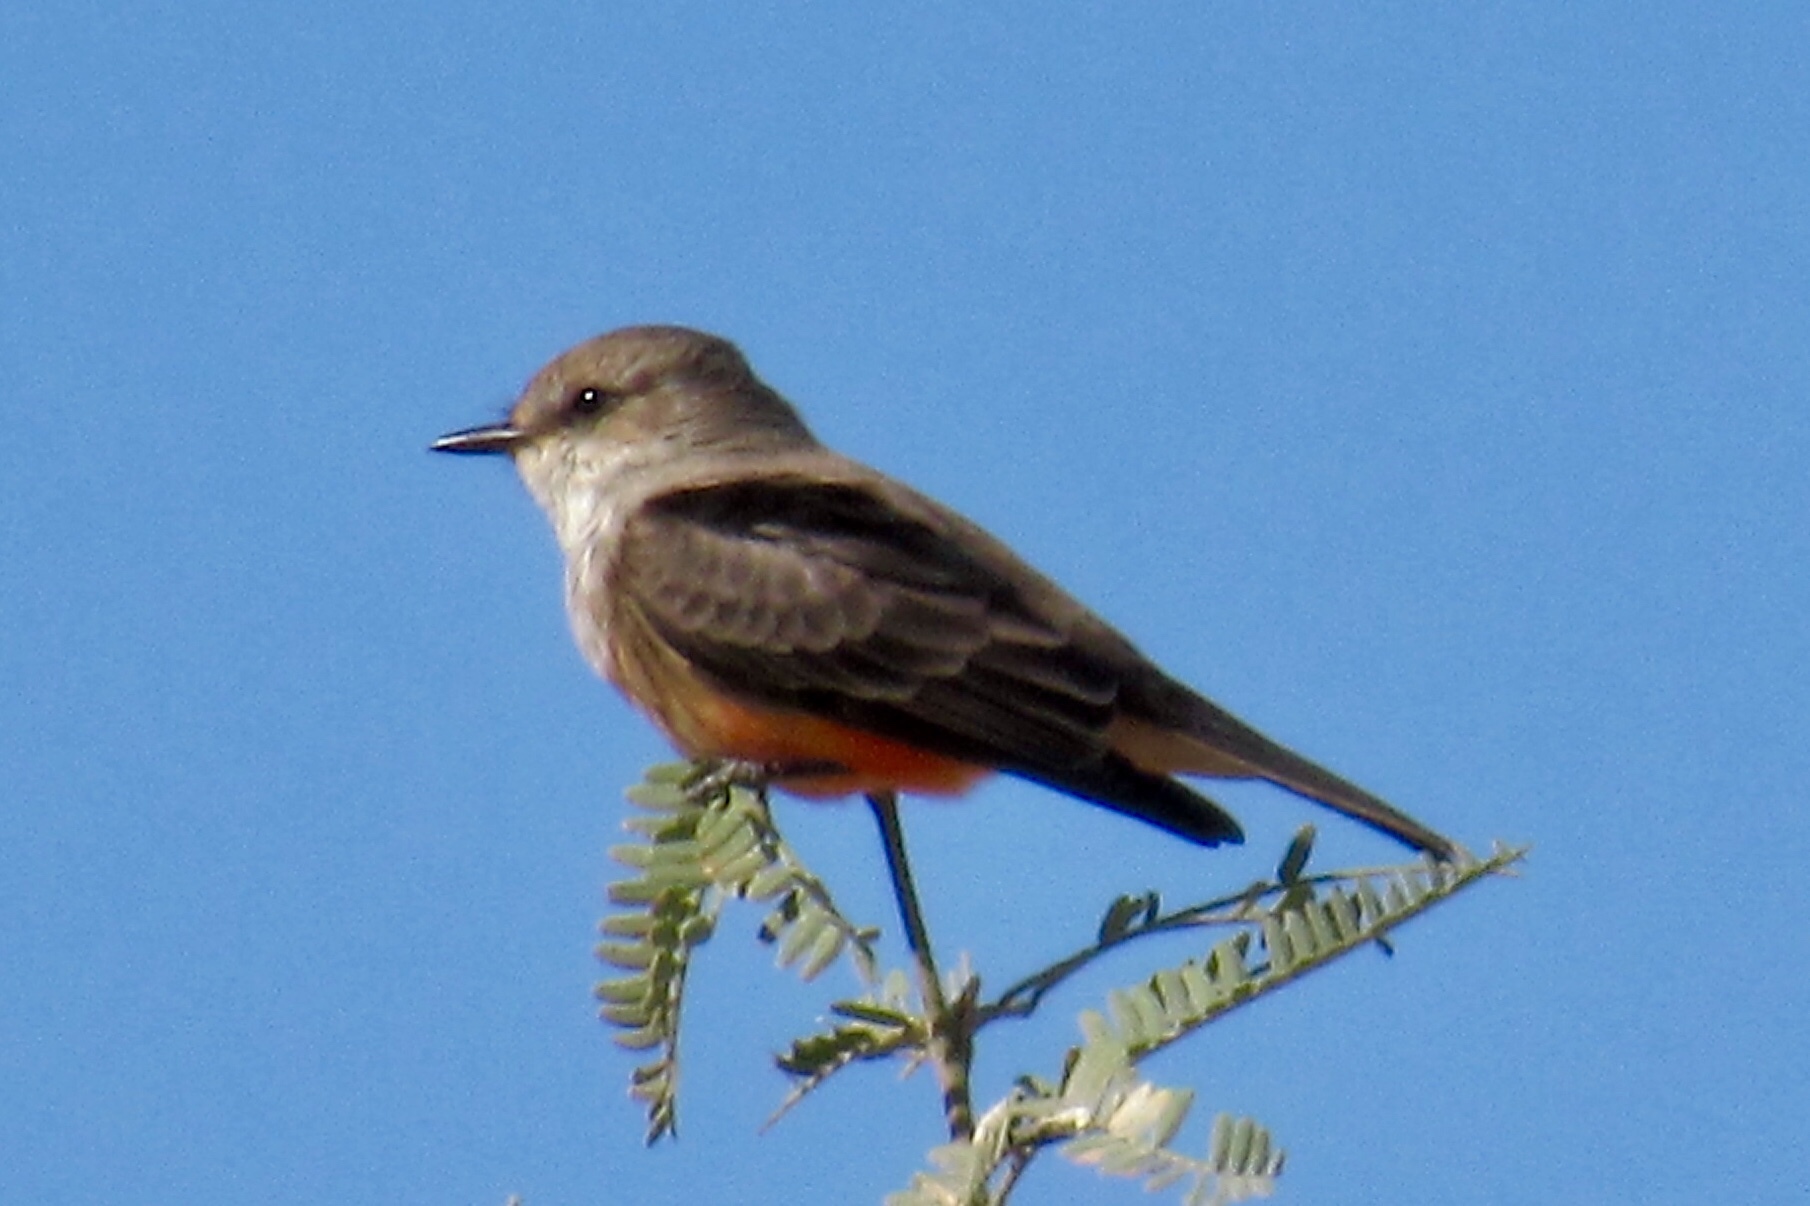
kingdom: Animalia
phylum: Chordata
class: Aves
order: Passeriformes
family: Tyrannidae
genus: Pyrocephalus
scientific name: Pyrocephalus rubinus
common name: Vermilion flycatcher
